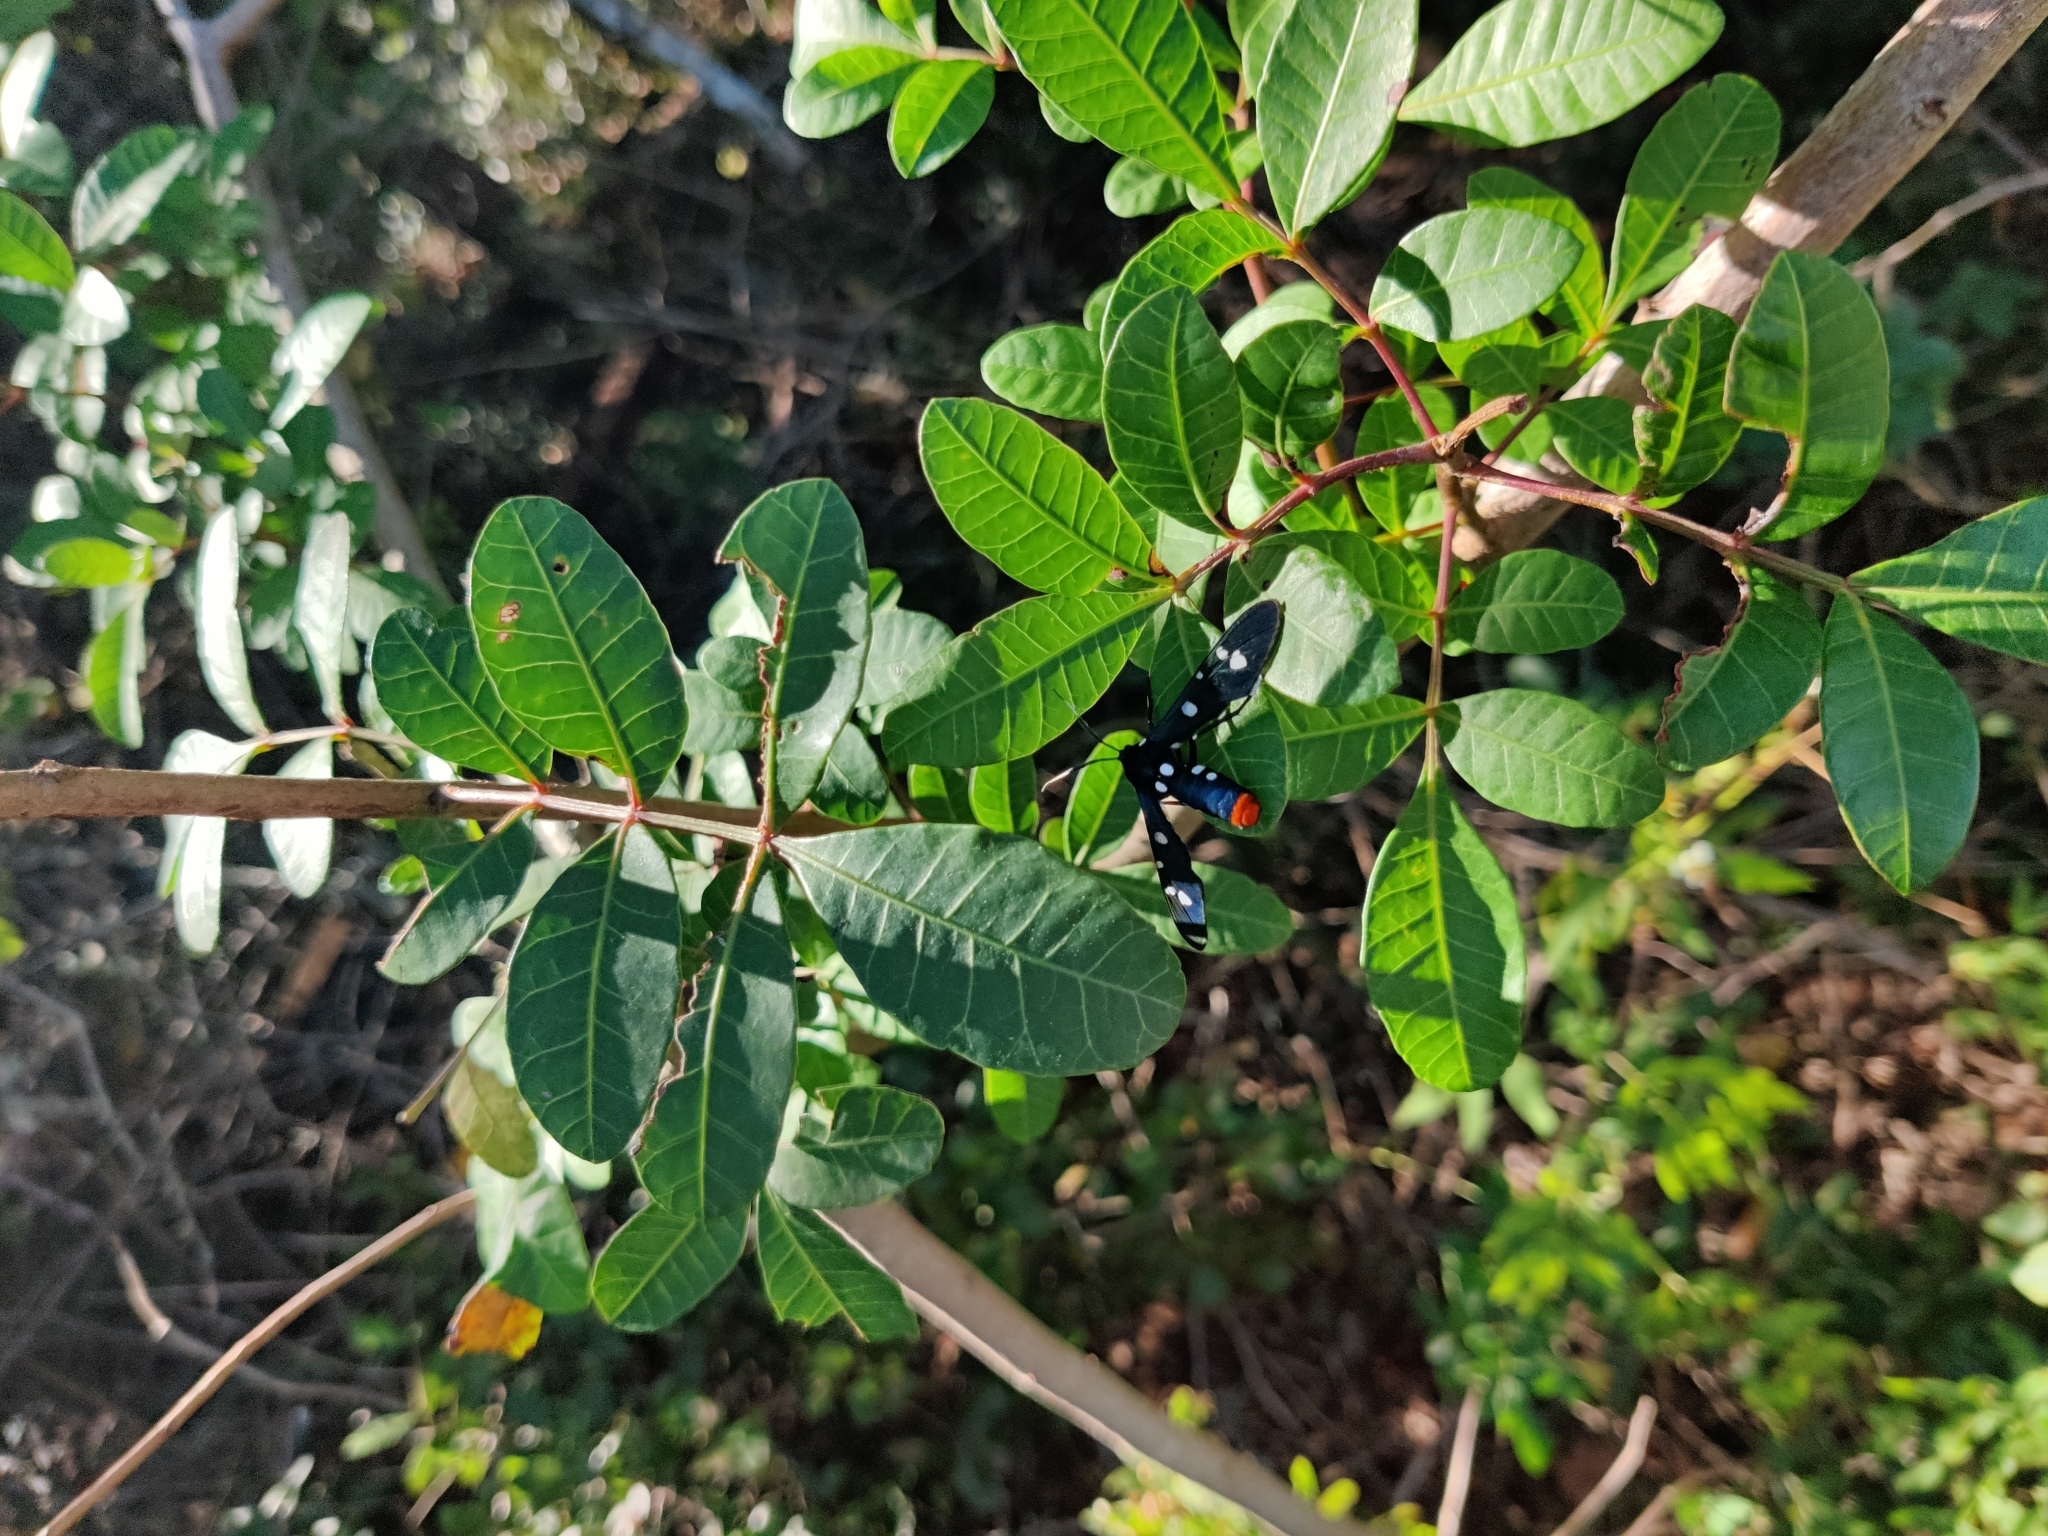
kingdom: Animalia
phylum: Arthropoda
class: Insecta
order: Lepidoptera
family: Erebidae
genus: Syntomeida
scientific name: Syntomeida epilais
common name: Polka-dot wasp moth
